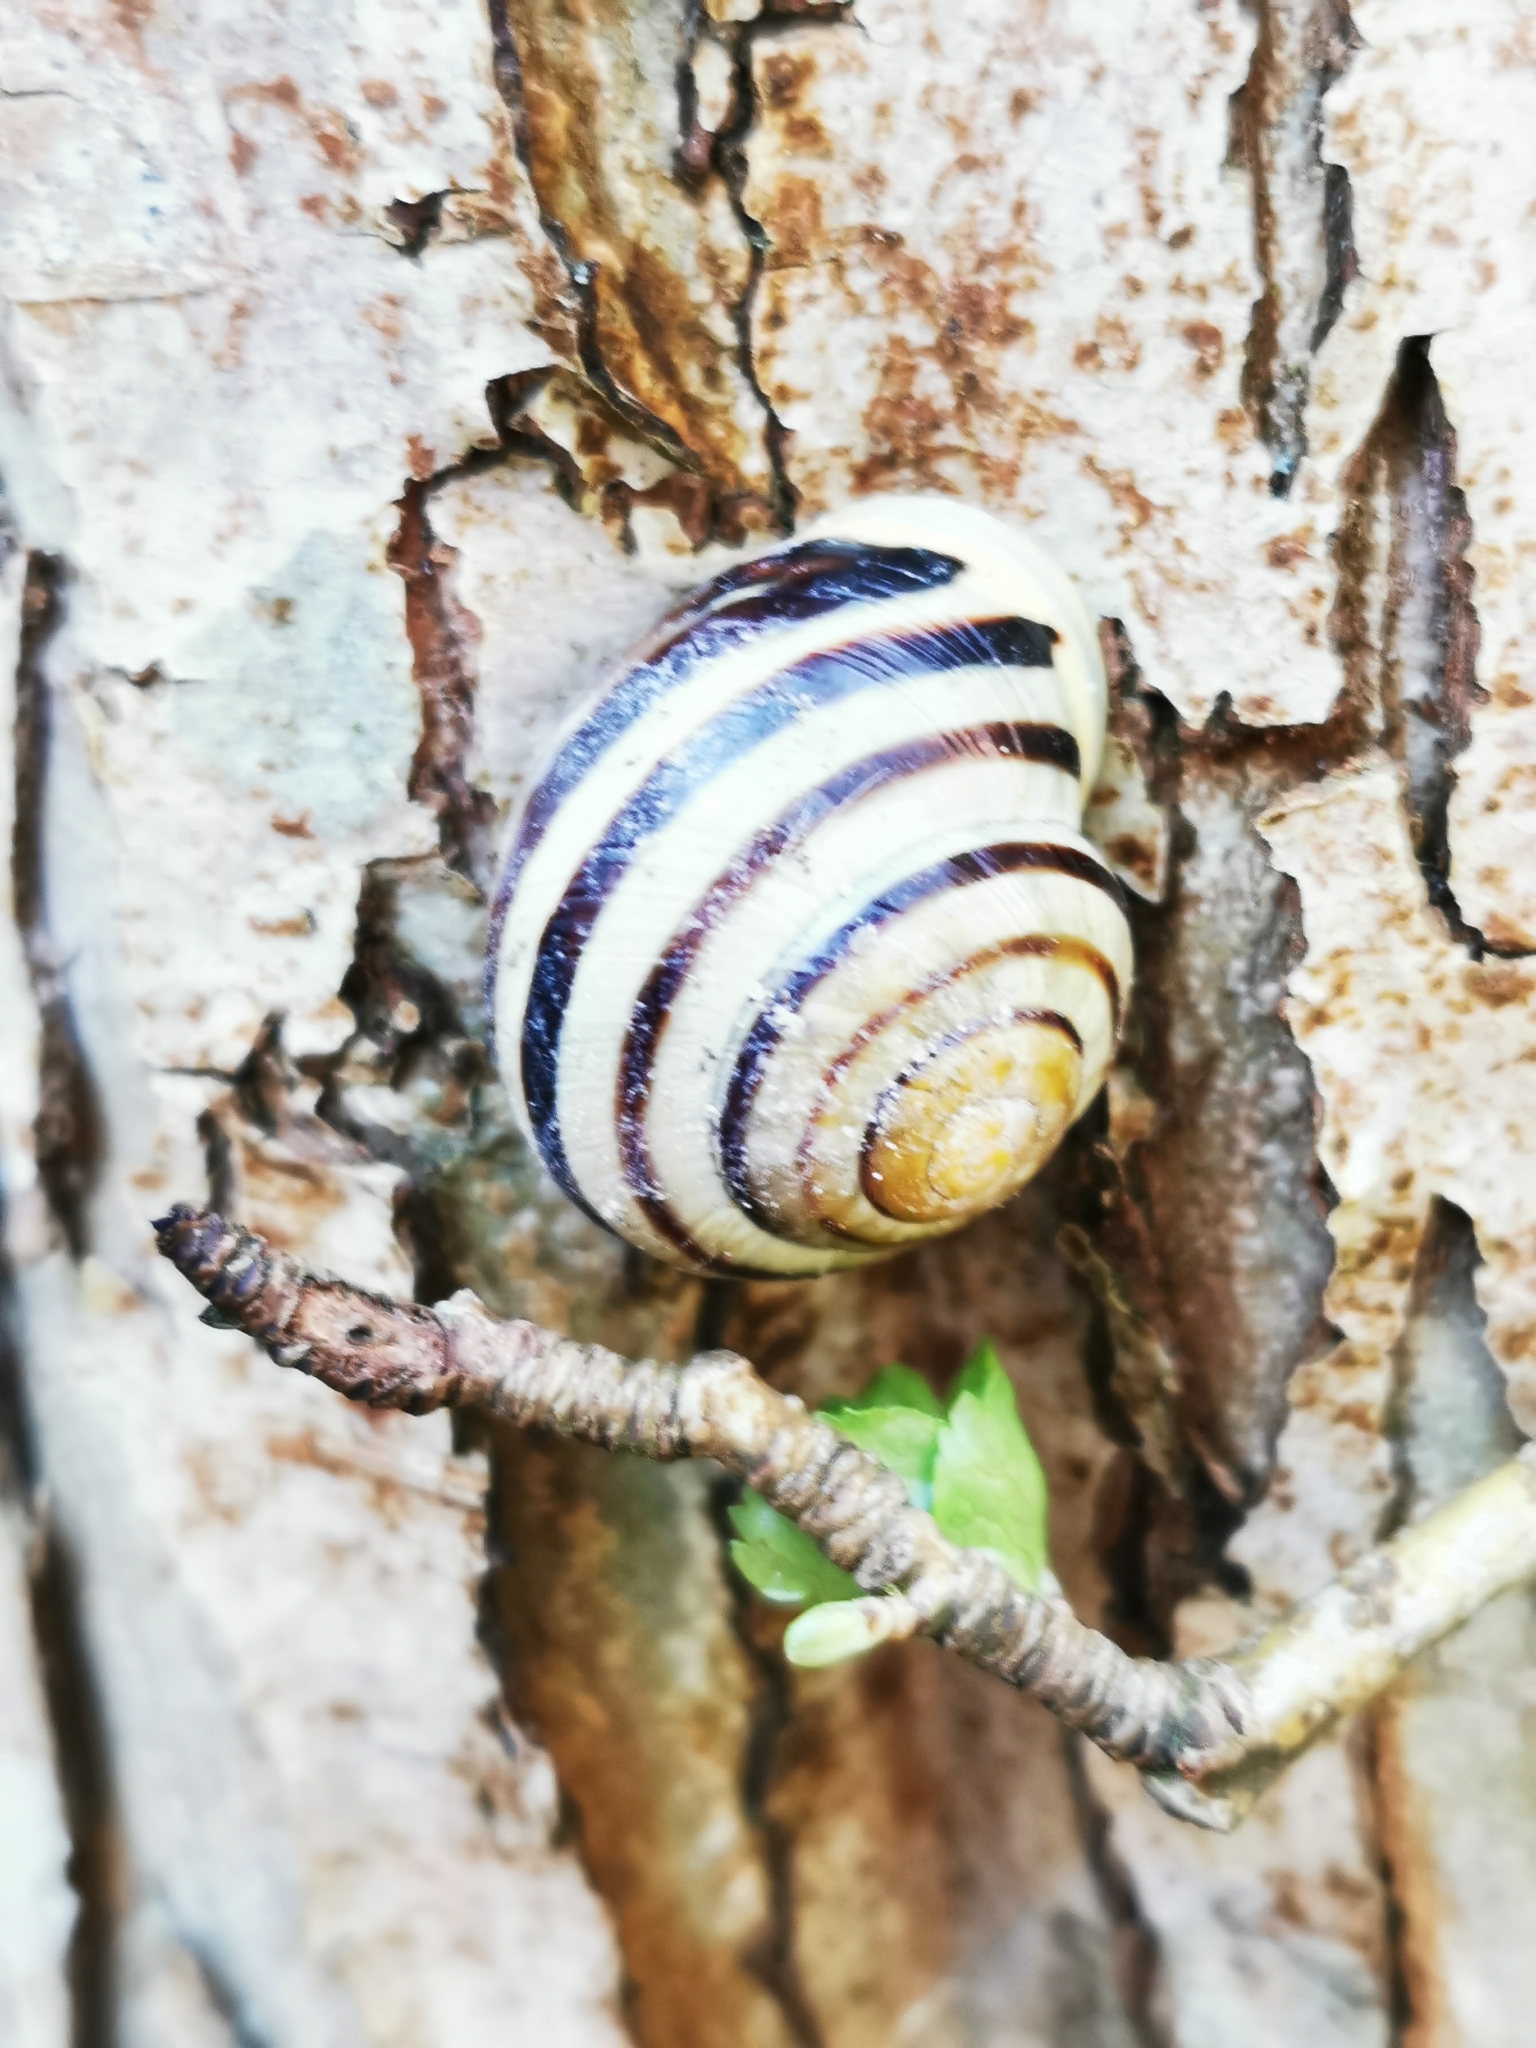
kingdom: Animalia
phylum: Mollusca
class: Gastropoda
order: Stylommatophora
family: Helicidae
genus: Cepaea
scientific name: Cepaea hortensis
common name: White-lip gardensnail
